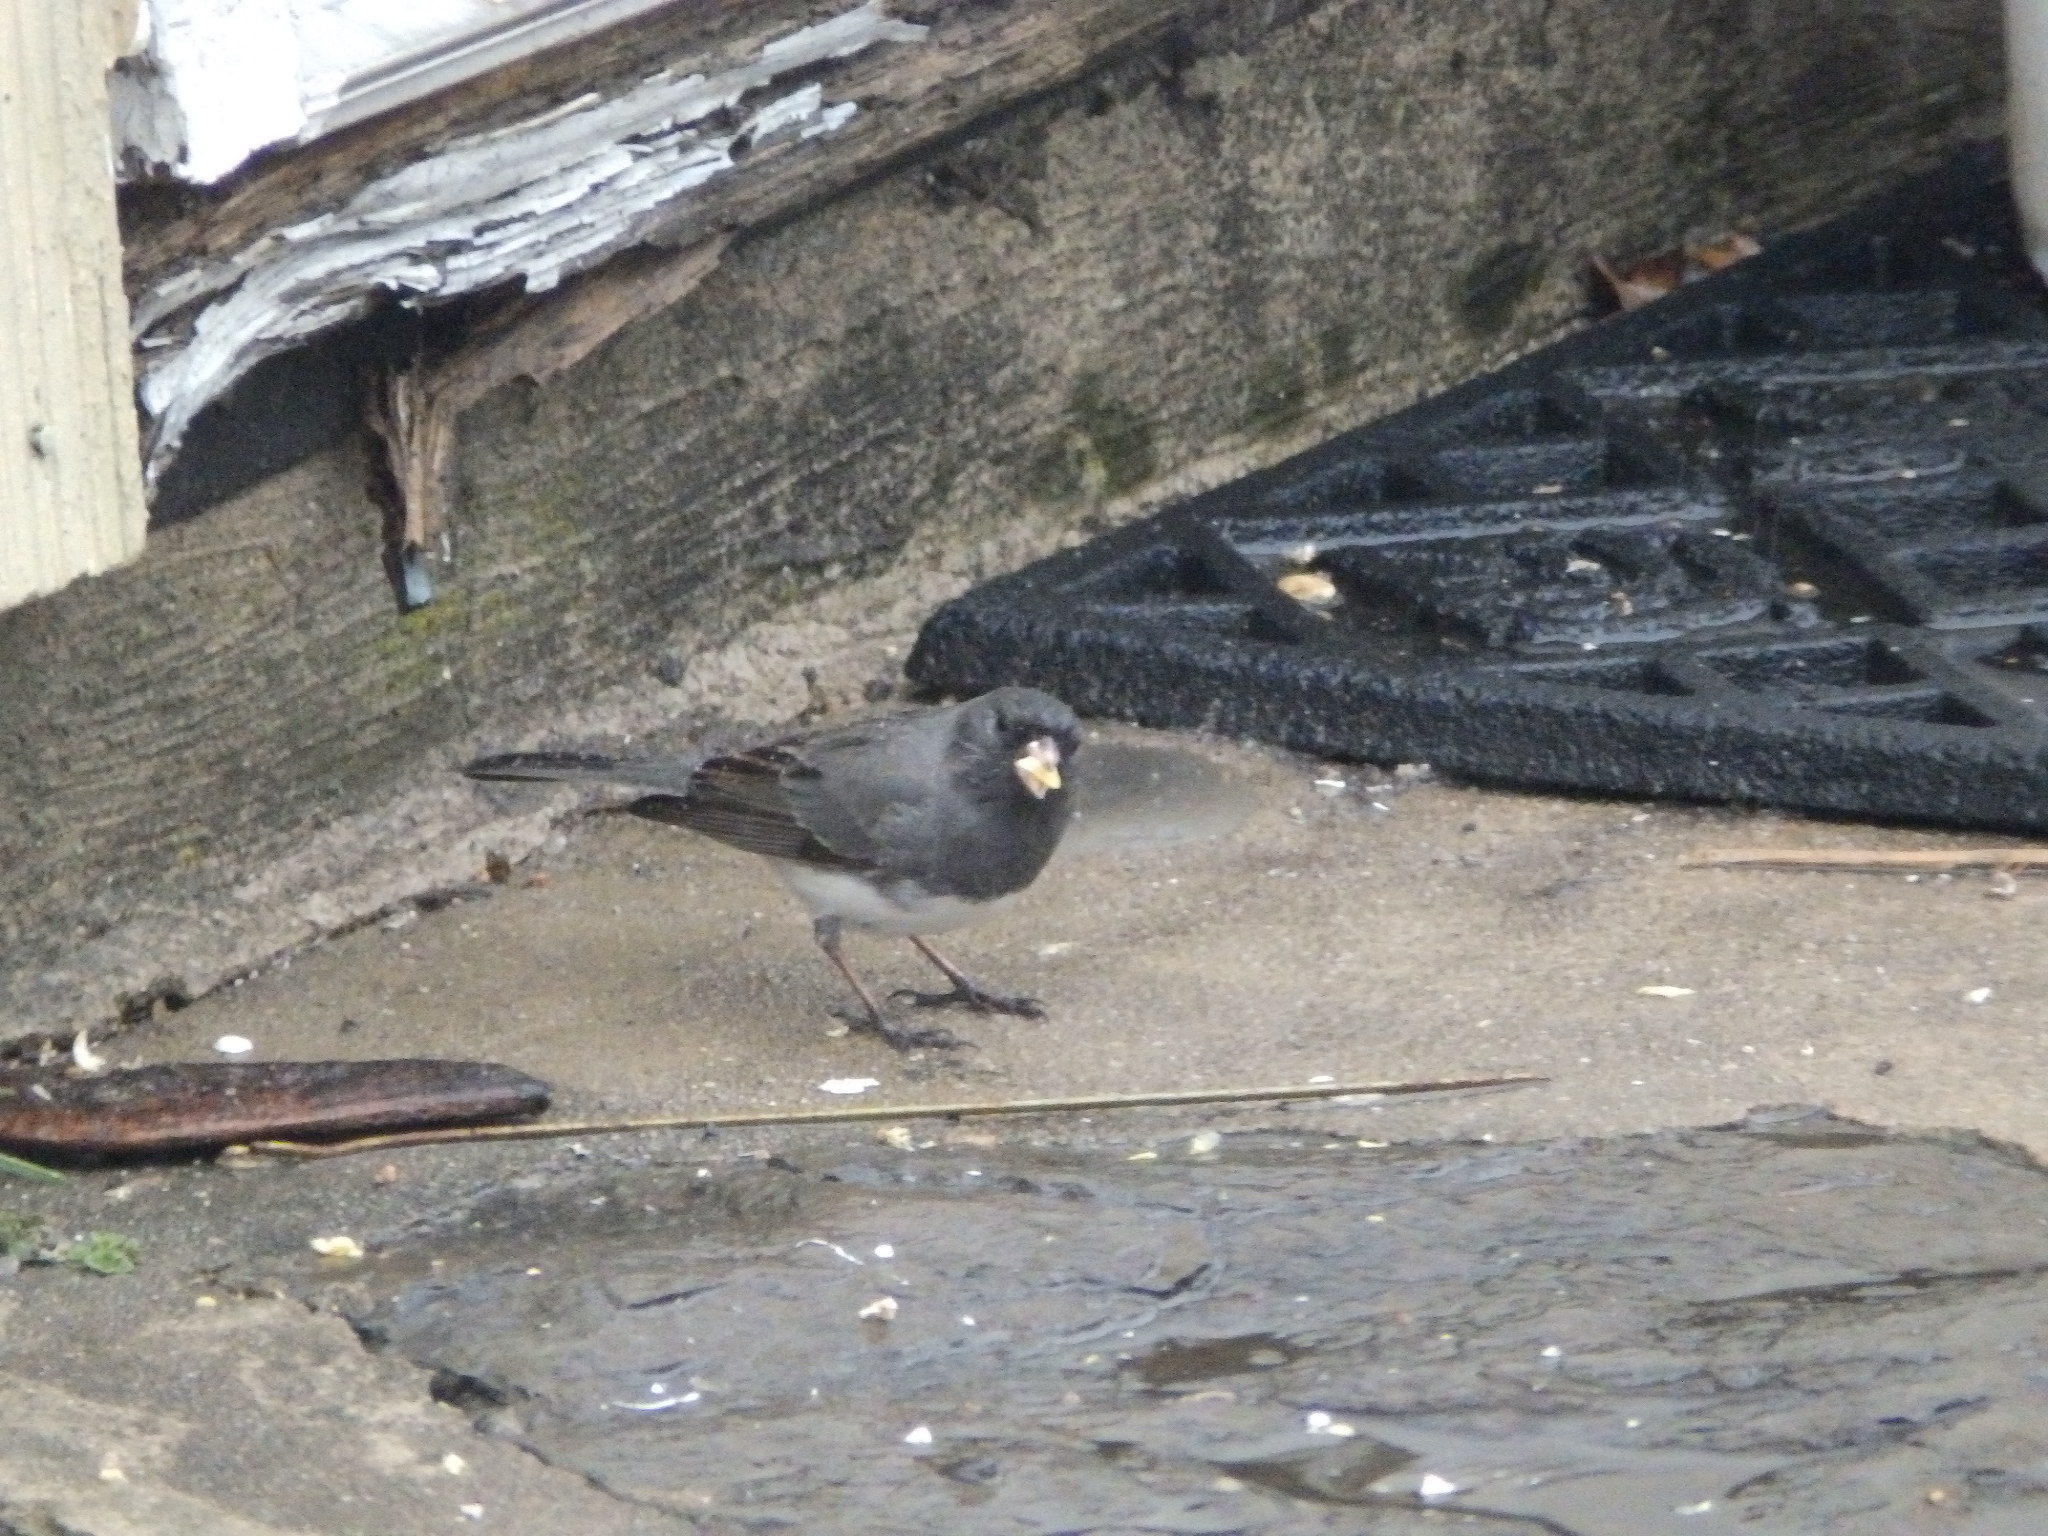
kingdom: Animalia
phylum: Chordata
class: Aves
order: Passeriformes
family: Passerellidae
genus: Junco
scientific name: Junco hyemalis
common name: Dark-eyed junco
